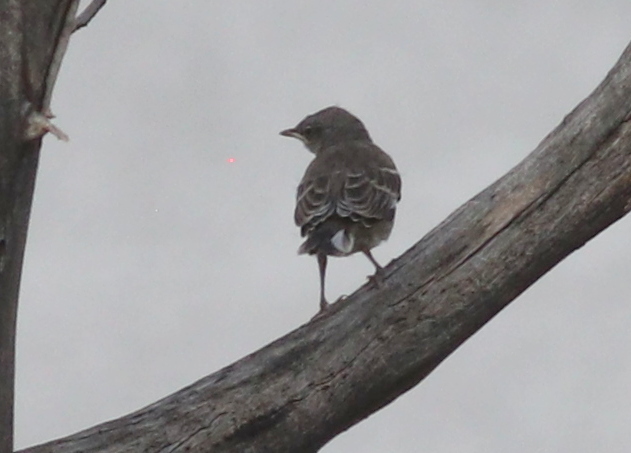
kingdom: Animalia
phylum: Chordata
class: Aves
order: Passeriformes
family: Mimidae
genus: Mimus
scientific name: Mimus polyglottos
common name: Northern mockingbird
